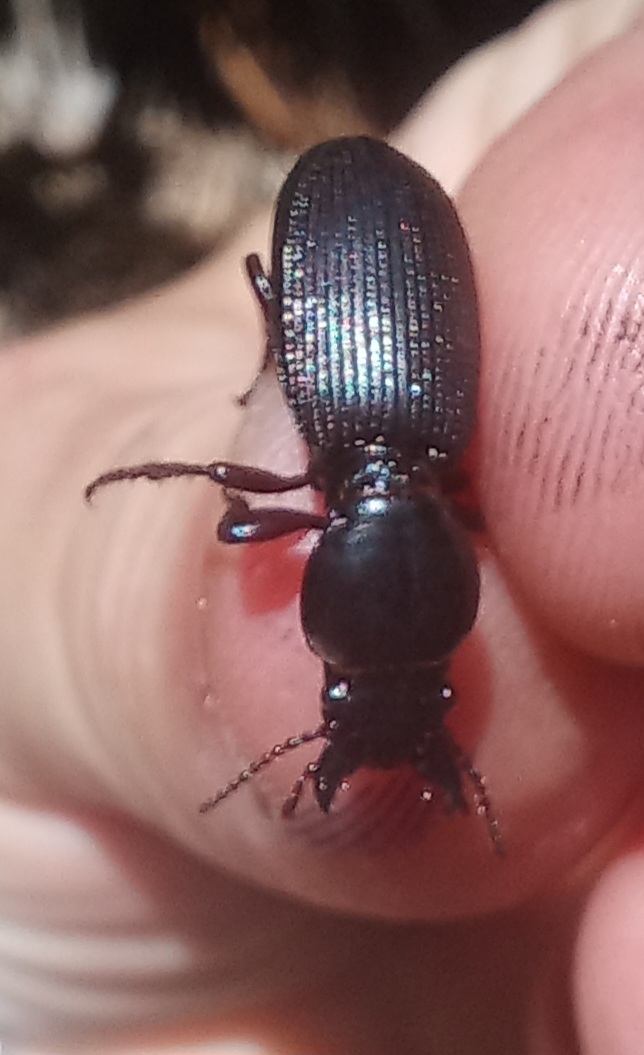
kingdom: Animalia
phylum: Arthropoda
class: Insecta
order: Coleoptera
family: Carabidae
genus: Mecodema
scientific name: Mecodema oblongum
